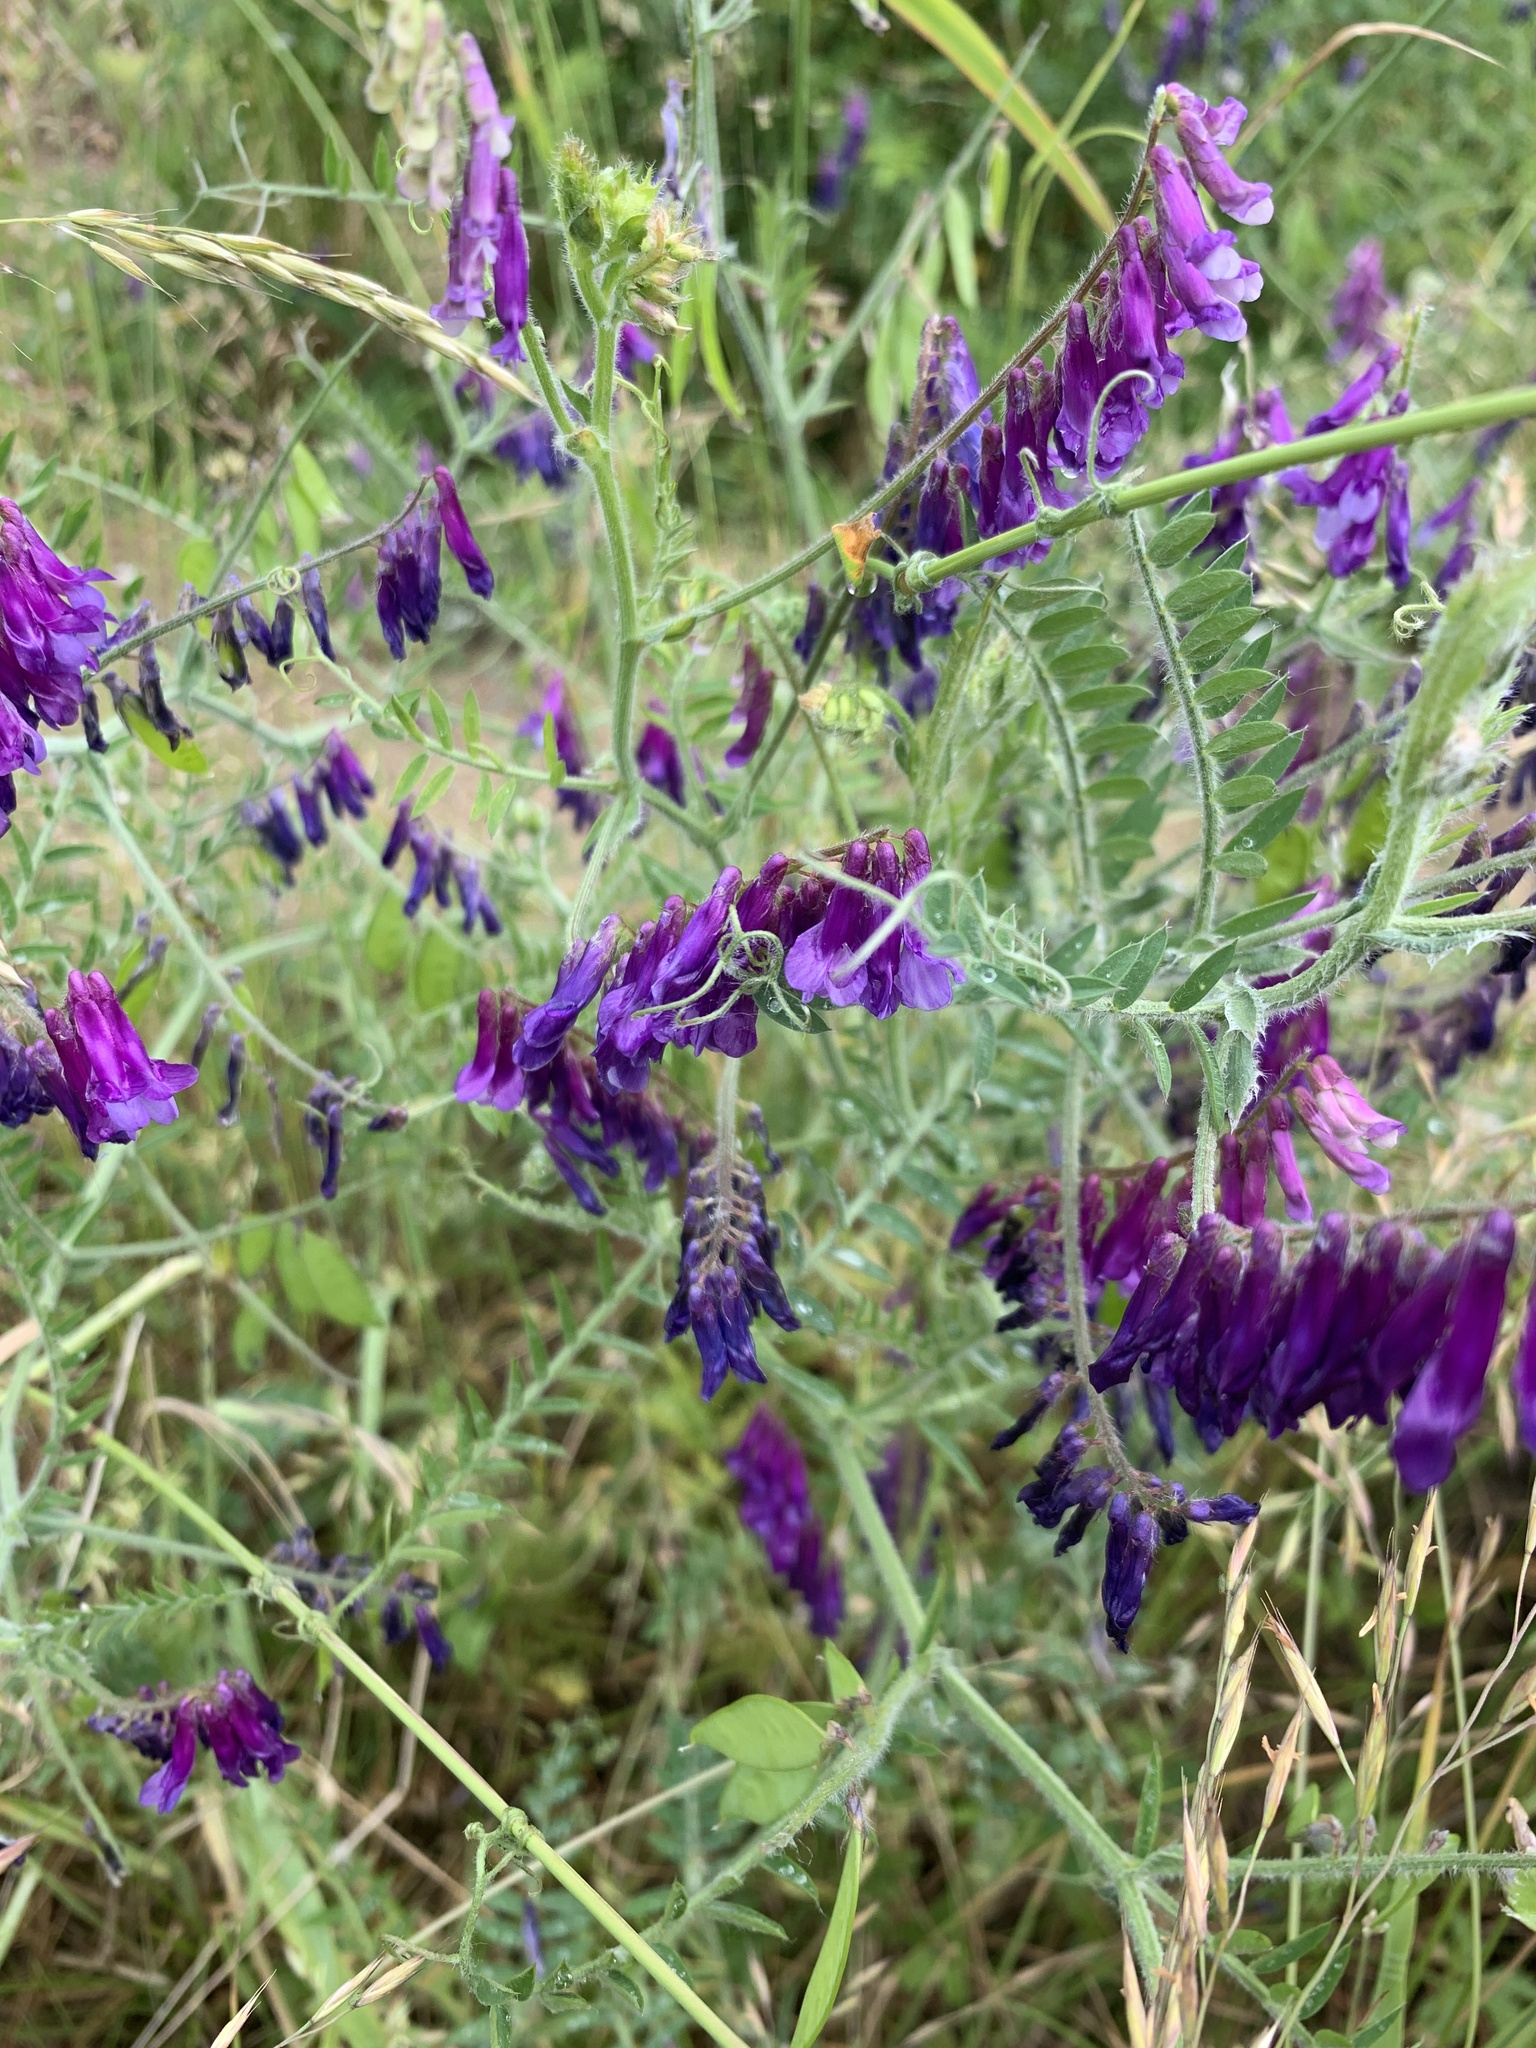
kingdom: Plantae
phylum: Tracheophyta
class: Magnoliopsida
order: Fabales
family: Fabaceae
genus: Vicia
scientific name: Vicia villosa
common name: Fodder vetch
